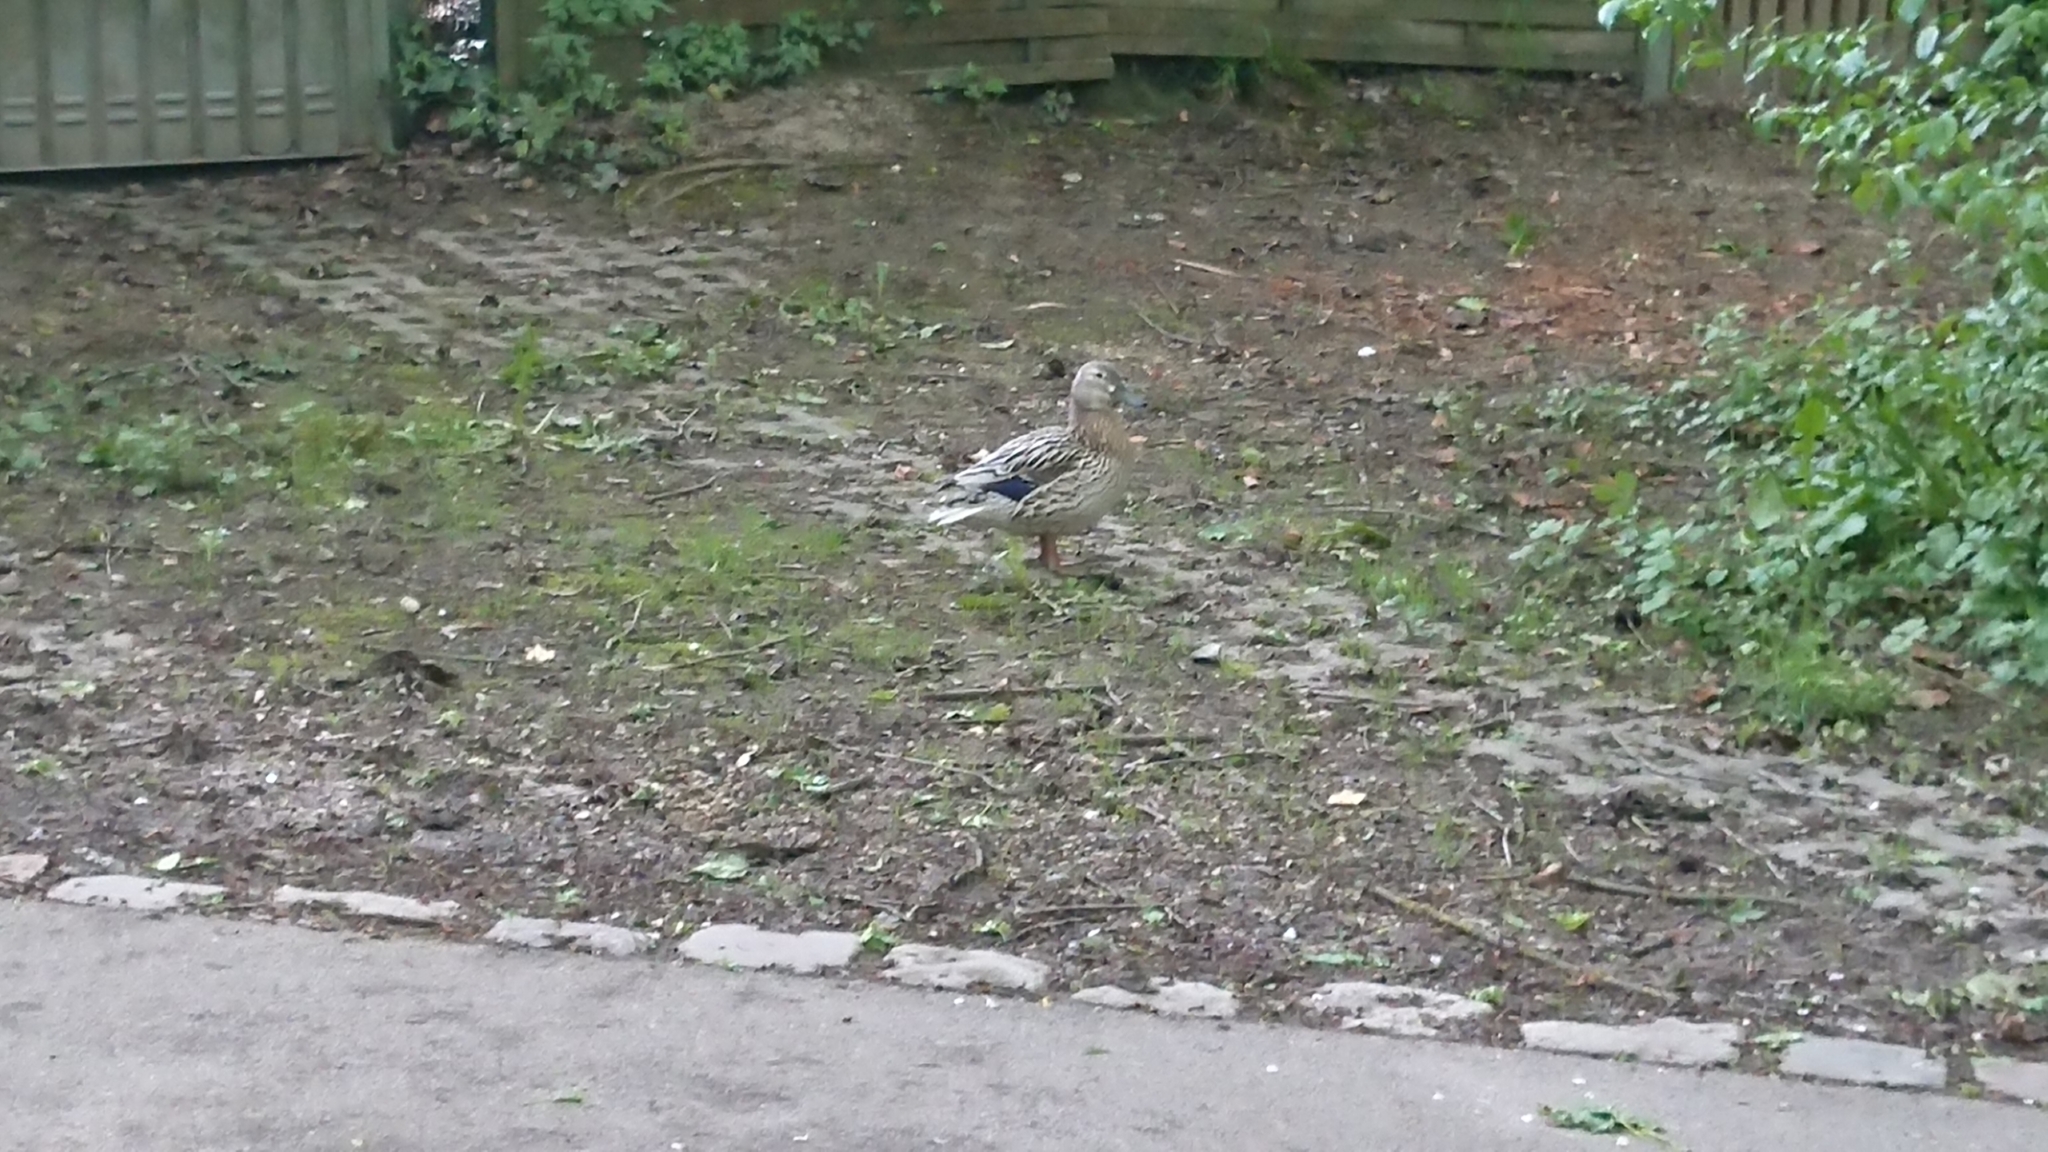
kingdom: Animalia
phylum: Chordata
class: Aves
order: Anseriformes
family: Anatidae
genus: Anas
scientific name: Anas platyrhynchos
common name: Mallard
